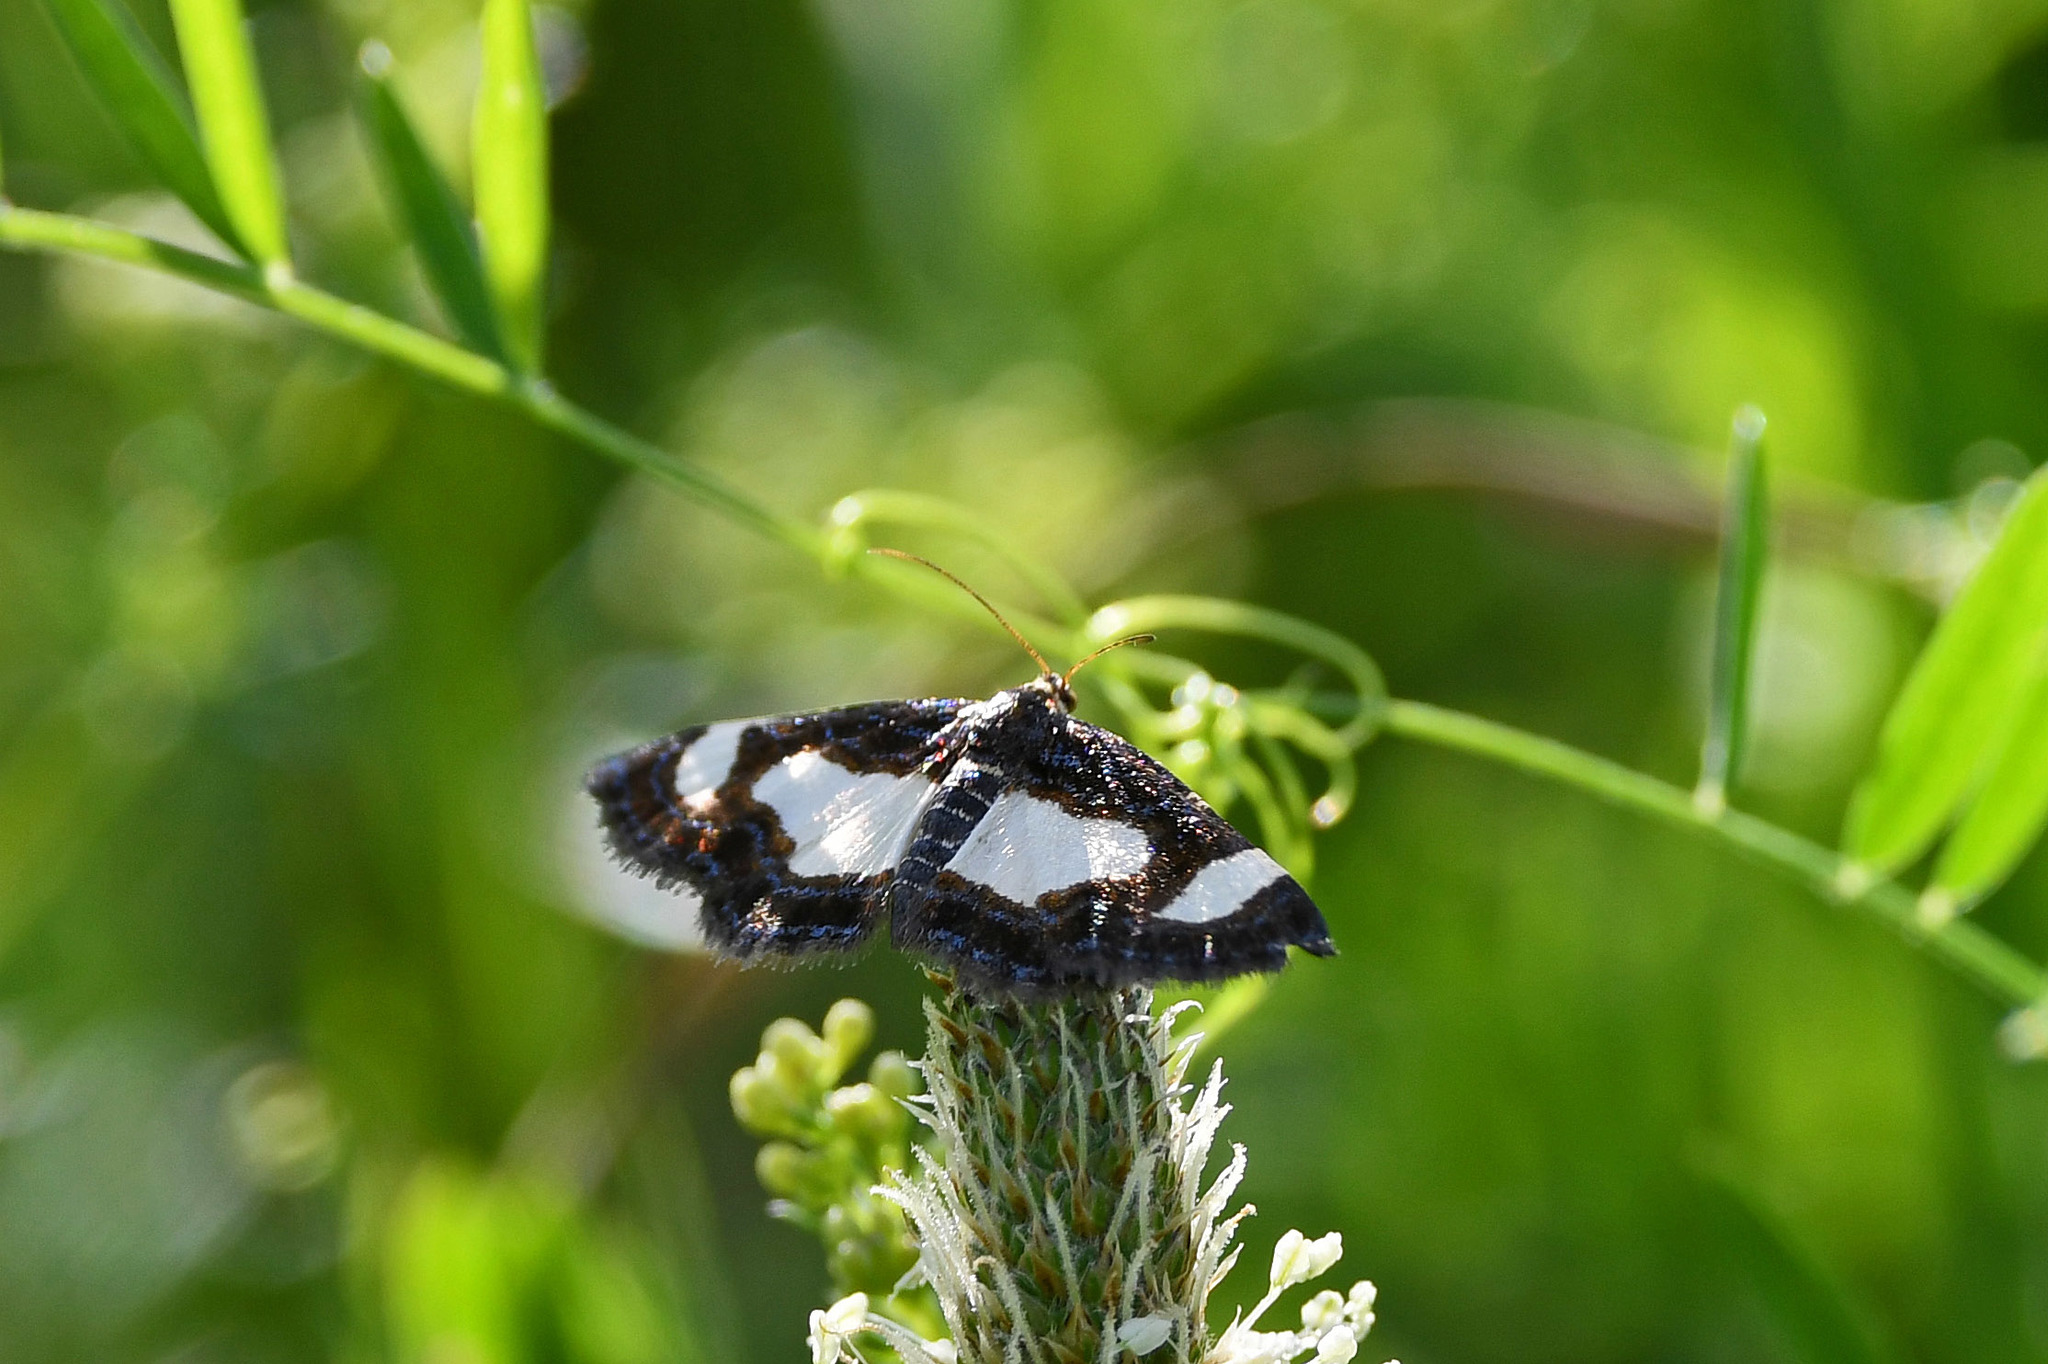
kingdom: Animalia
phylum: Arthropoda
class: Insecta
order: Lepidoptera
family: Geometridae
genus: Heliomata
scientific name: Heliomata cycladata
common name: Common spring moth
